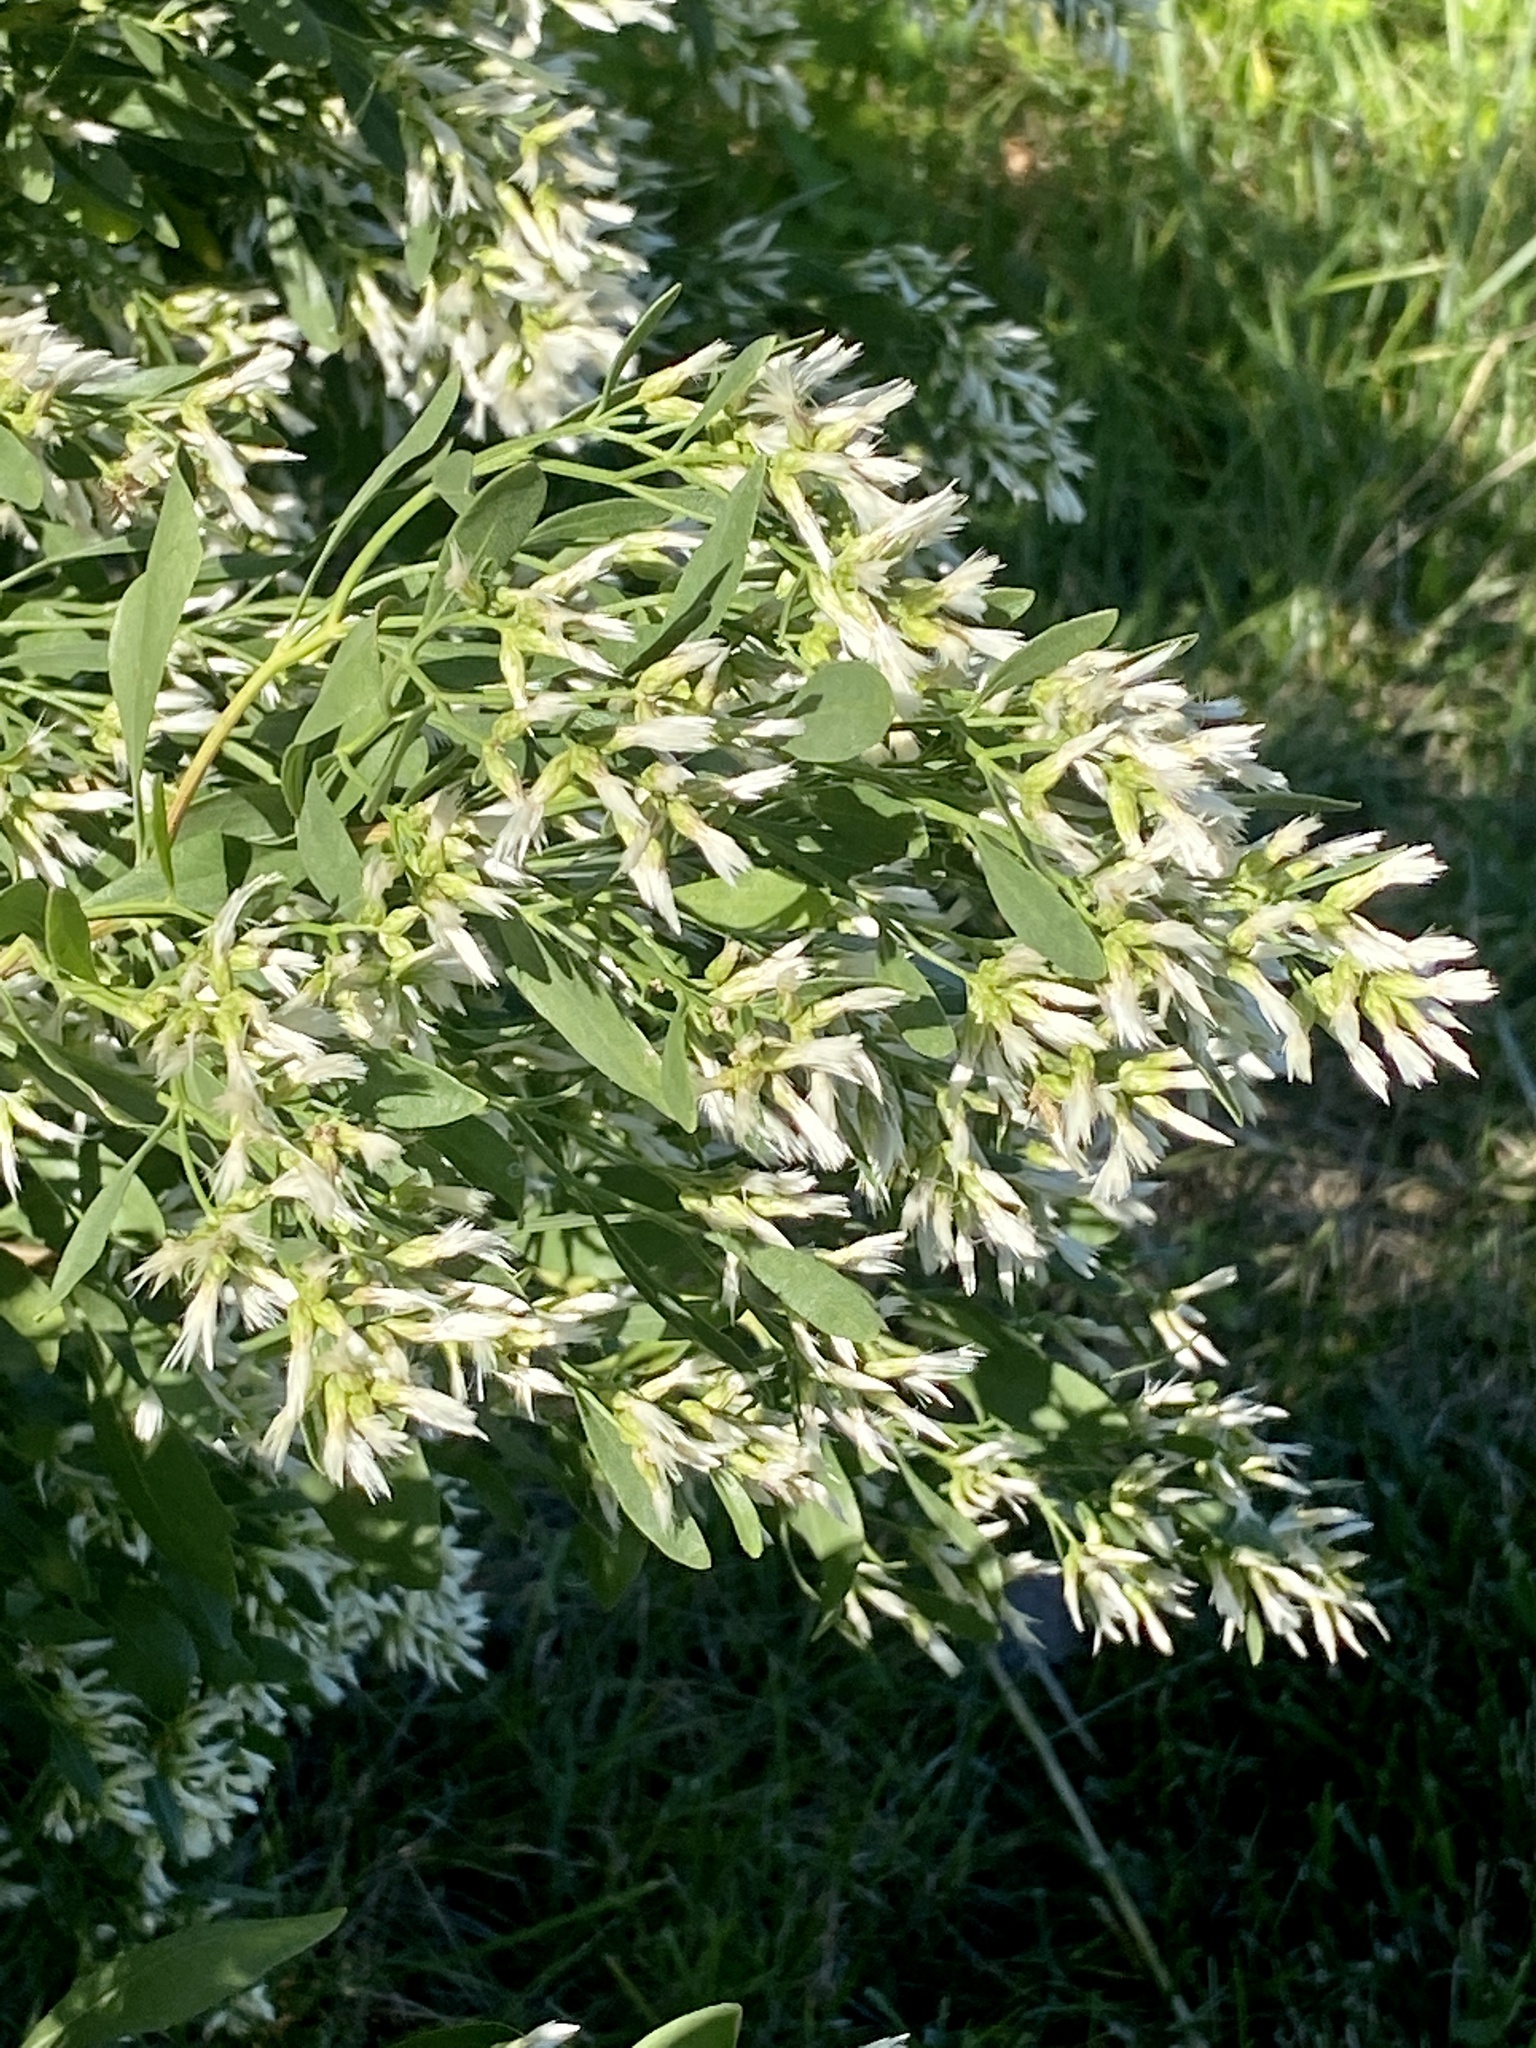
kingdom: Plantae
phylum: Tracheophyta
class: Magnoliopsida
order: Asterales
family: Asteraceae
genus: Baccharis
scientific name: Baccharis halimifolia
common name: Eastern baccharis
